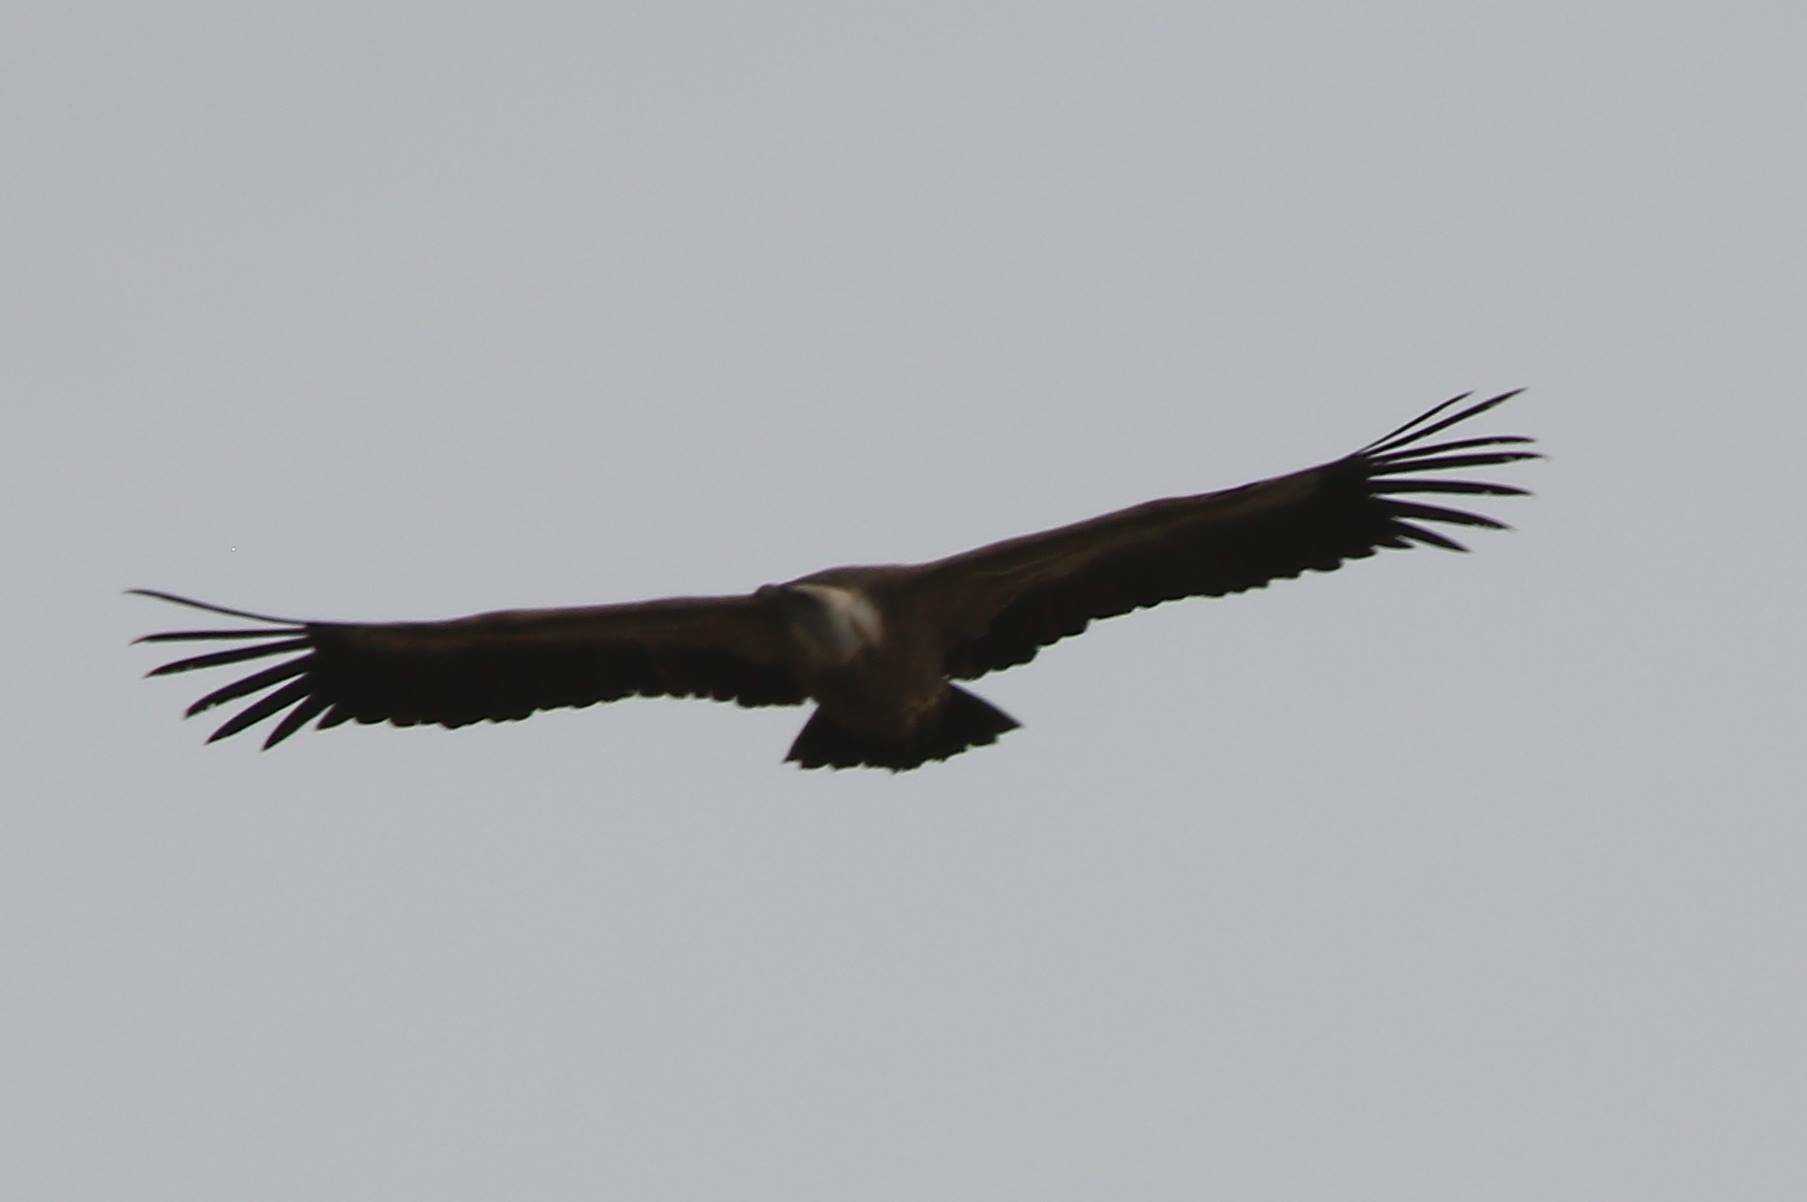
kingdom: Animalia
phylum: Chordata
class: Aves
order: Accipitriformes
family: Accipitridae
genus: Gyps
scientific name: Gyps fulvus
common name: Griffon vulture
